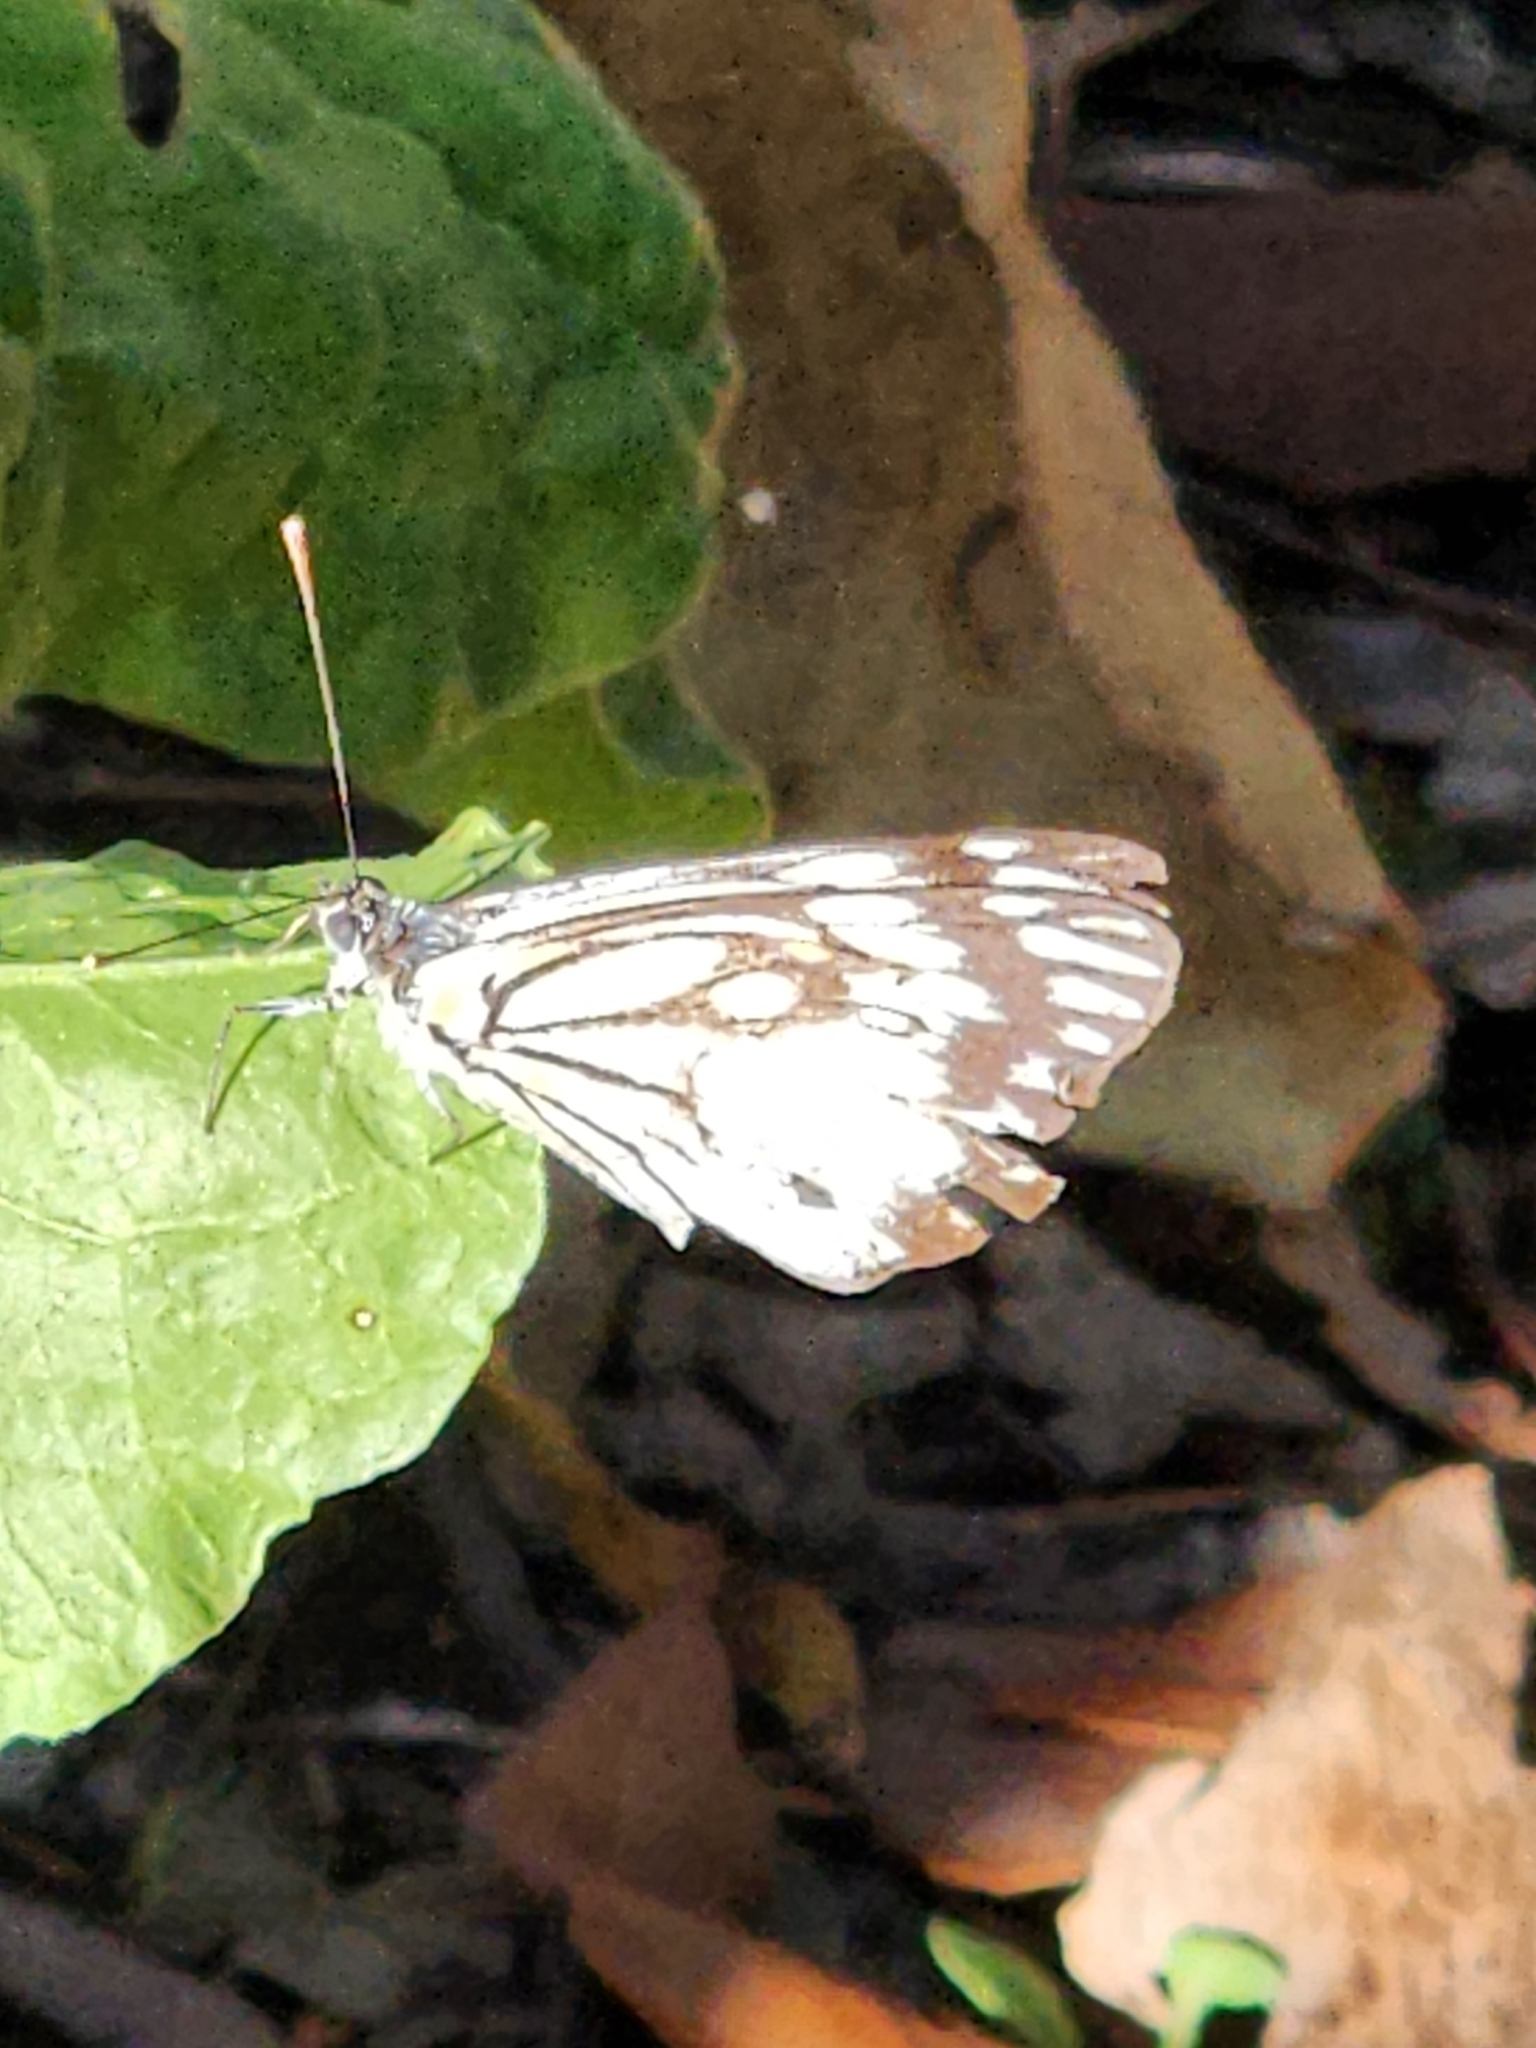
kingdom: Animalia
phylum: Arthropoda
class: Insecta
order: Lepidoptera
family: Pieridae
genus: Belenois
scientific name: Belenois java
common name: Caper white
